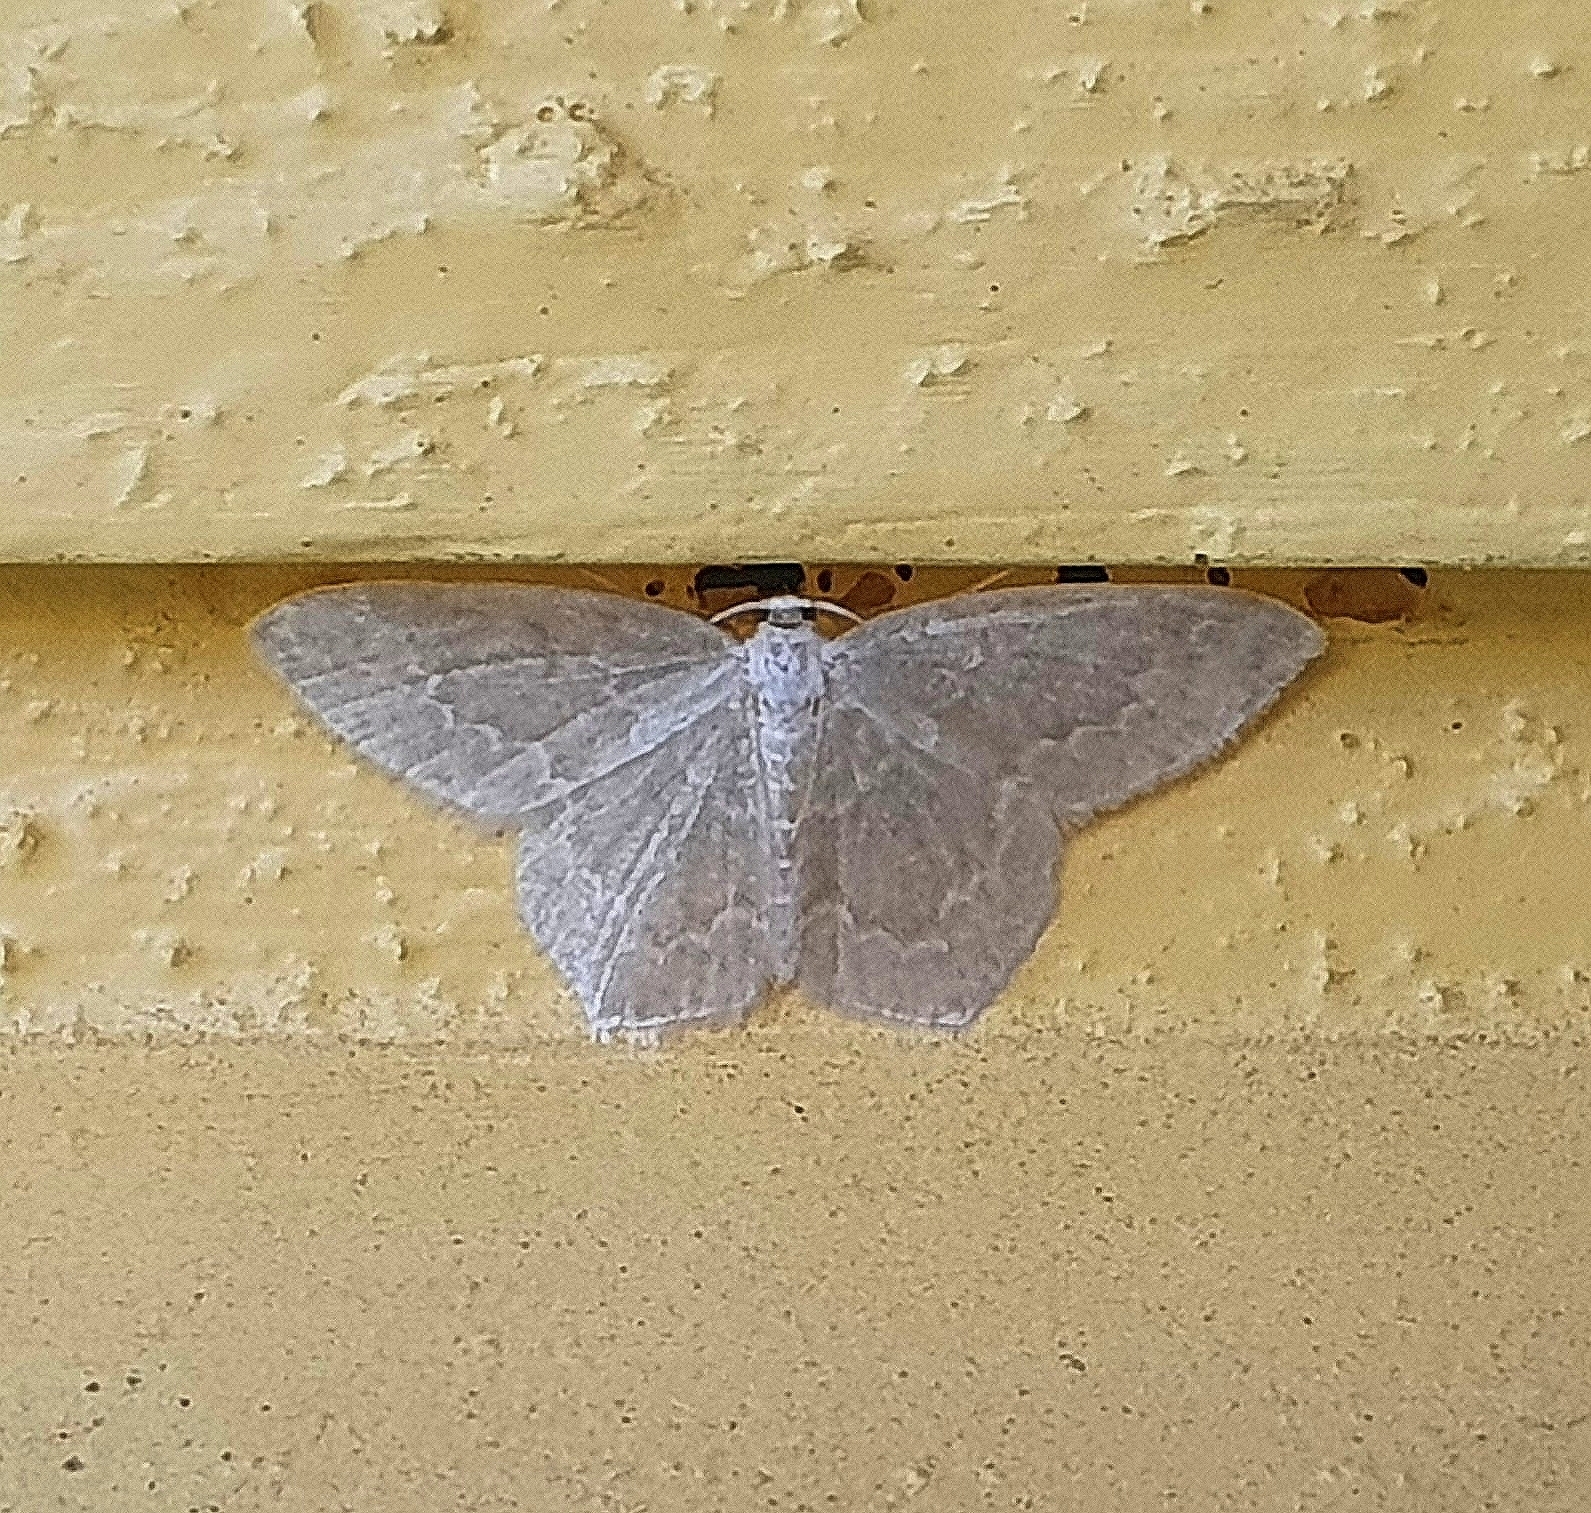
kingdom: Animalia
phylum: Arthropoda
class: Insecta
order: Lepidoptera
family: Geometridae
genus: Jodis
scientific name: Jodis putata
